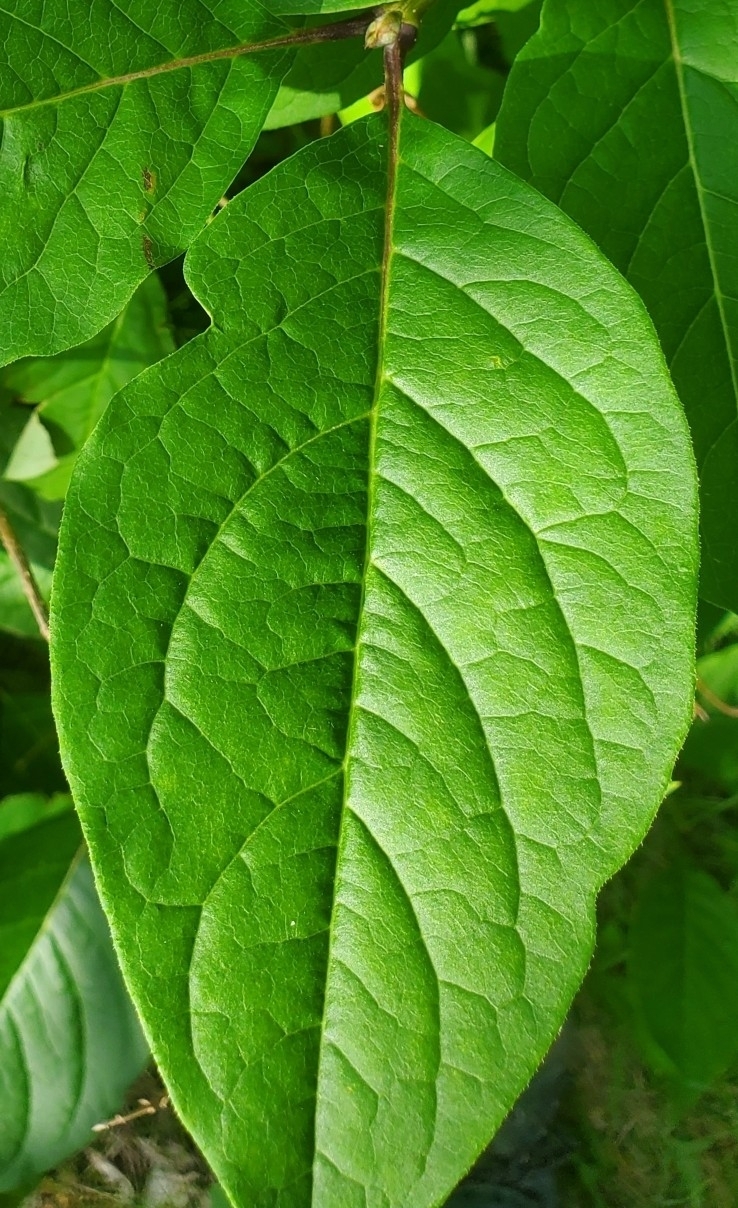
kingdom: Plantae
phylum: Tracheophyta
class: Magnoliopsida
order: Lamiales
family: Oleaceae
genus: Syringa
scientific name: Syringa josikaea
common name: Hungarian lilac
